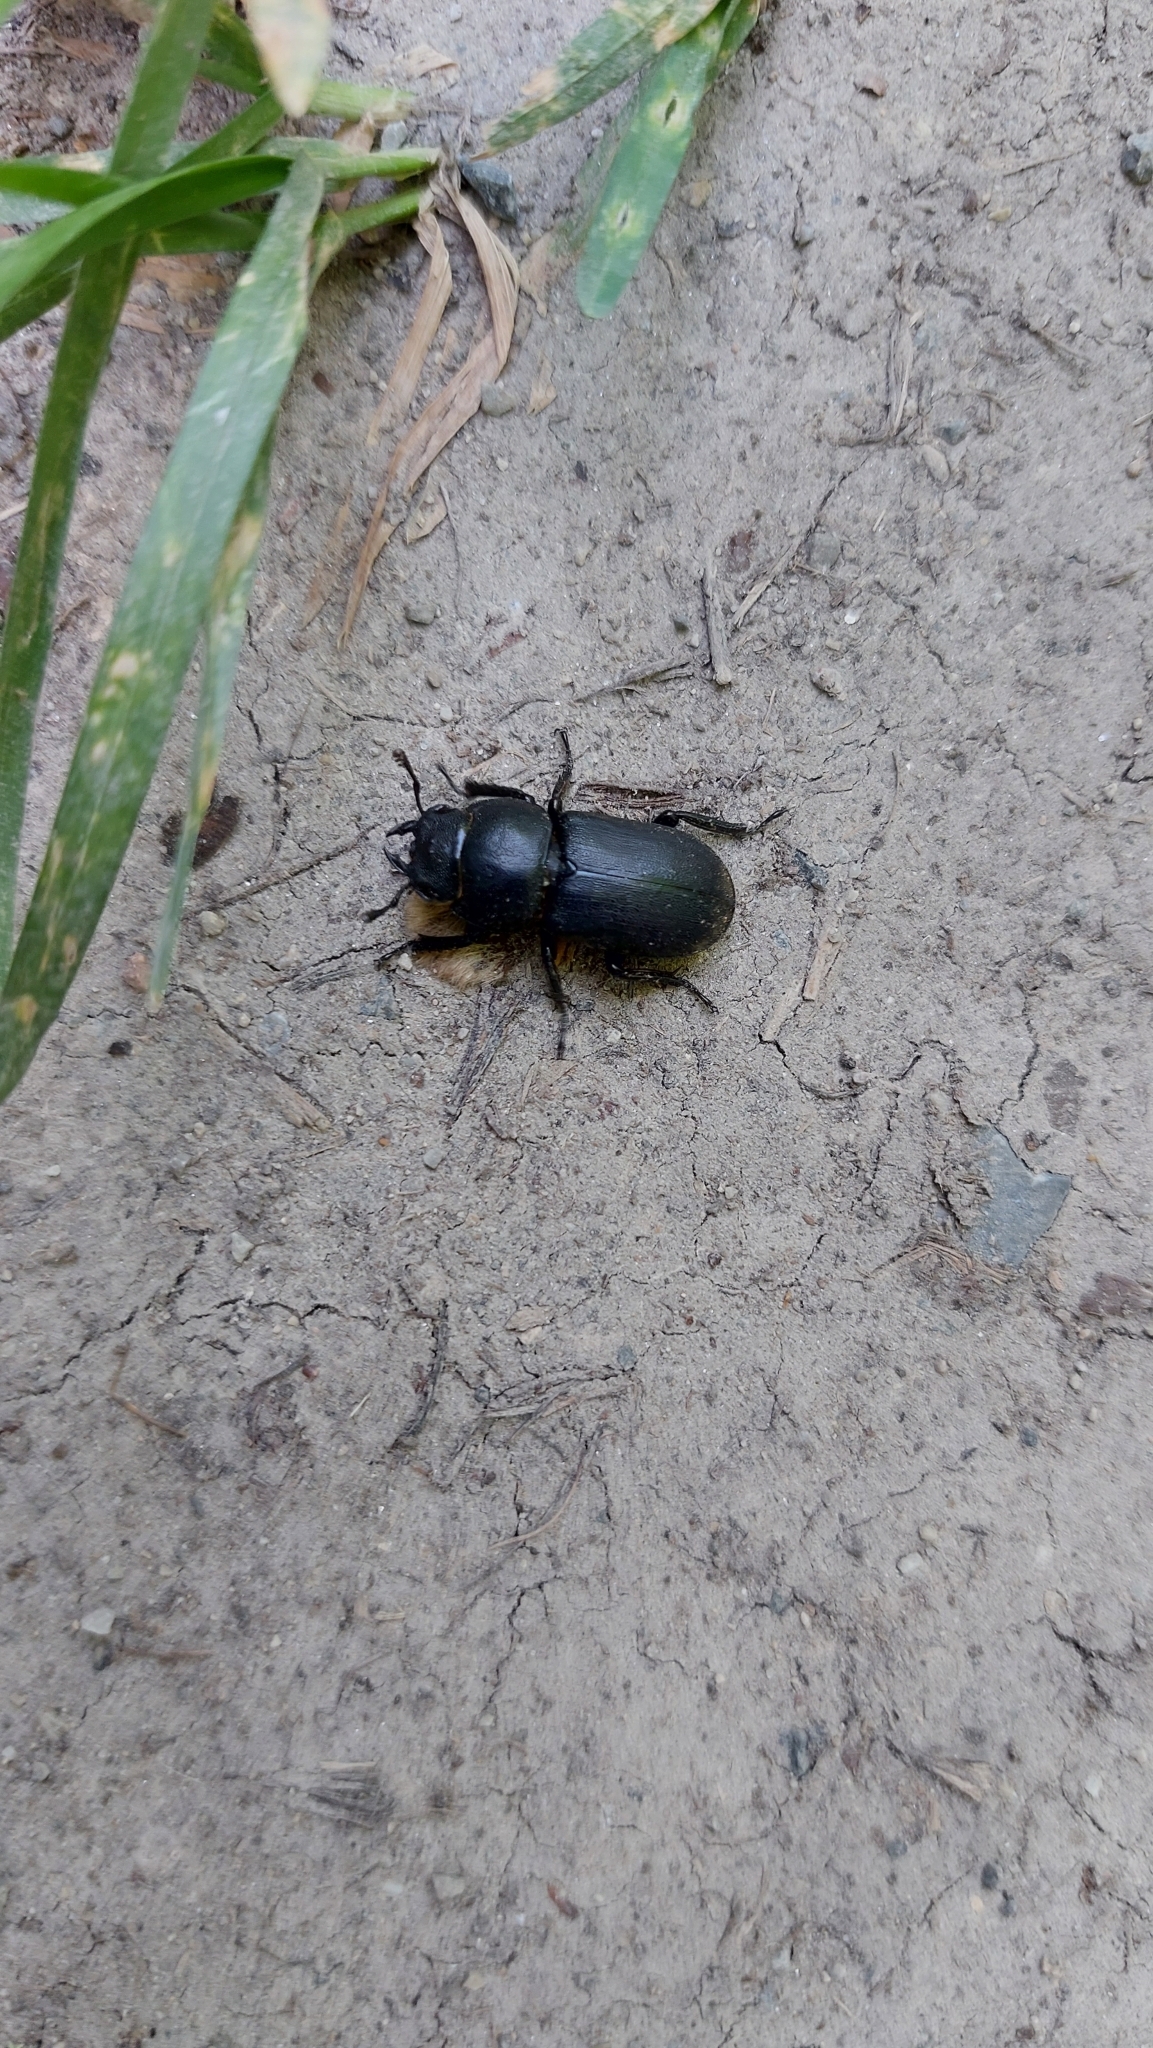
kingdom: Animalia
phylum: Arthropoda
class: Insecta
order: Coleoptera
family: Lucanidae
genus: Dorcus
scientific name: Dorcus parallelipipedus
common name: Lesser stag beetle
